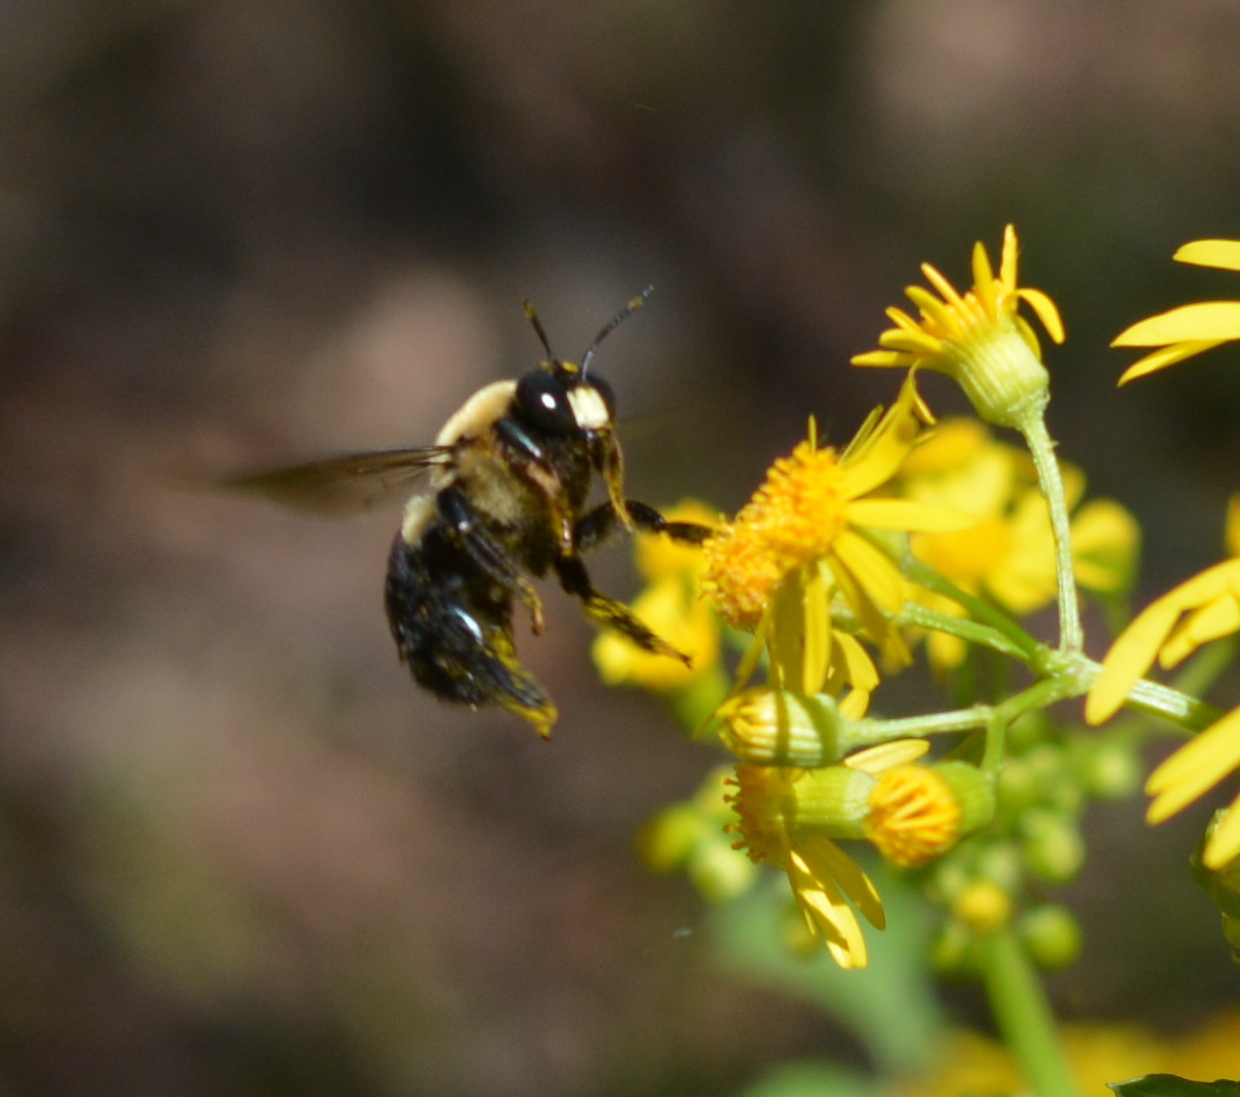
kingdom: Animalia
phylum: Arthropoda
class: Insecta
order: Hymenoptera
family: Apidae
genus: Xylocopa
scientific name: Xylocopa virginica
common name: Carpenter bee
